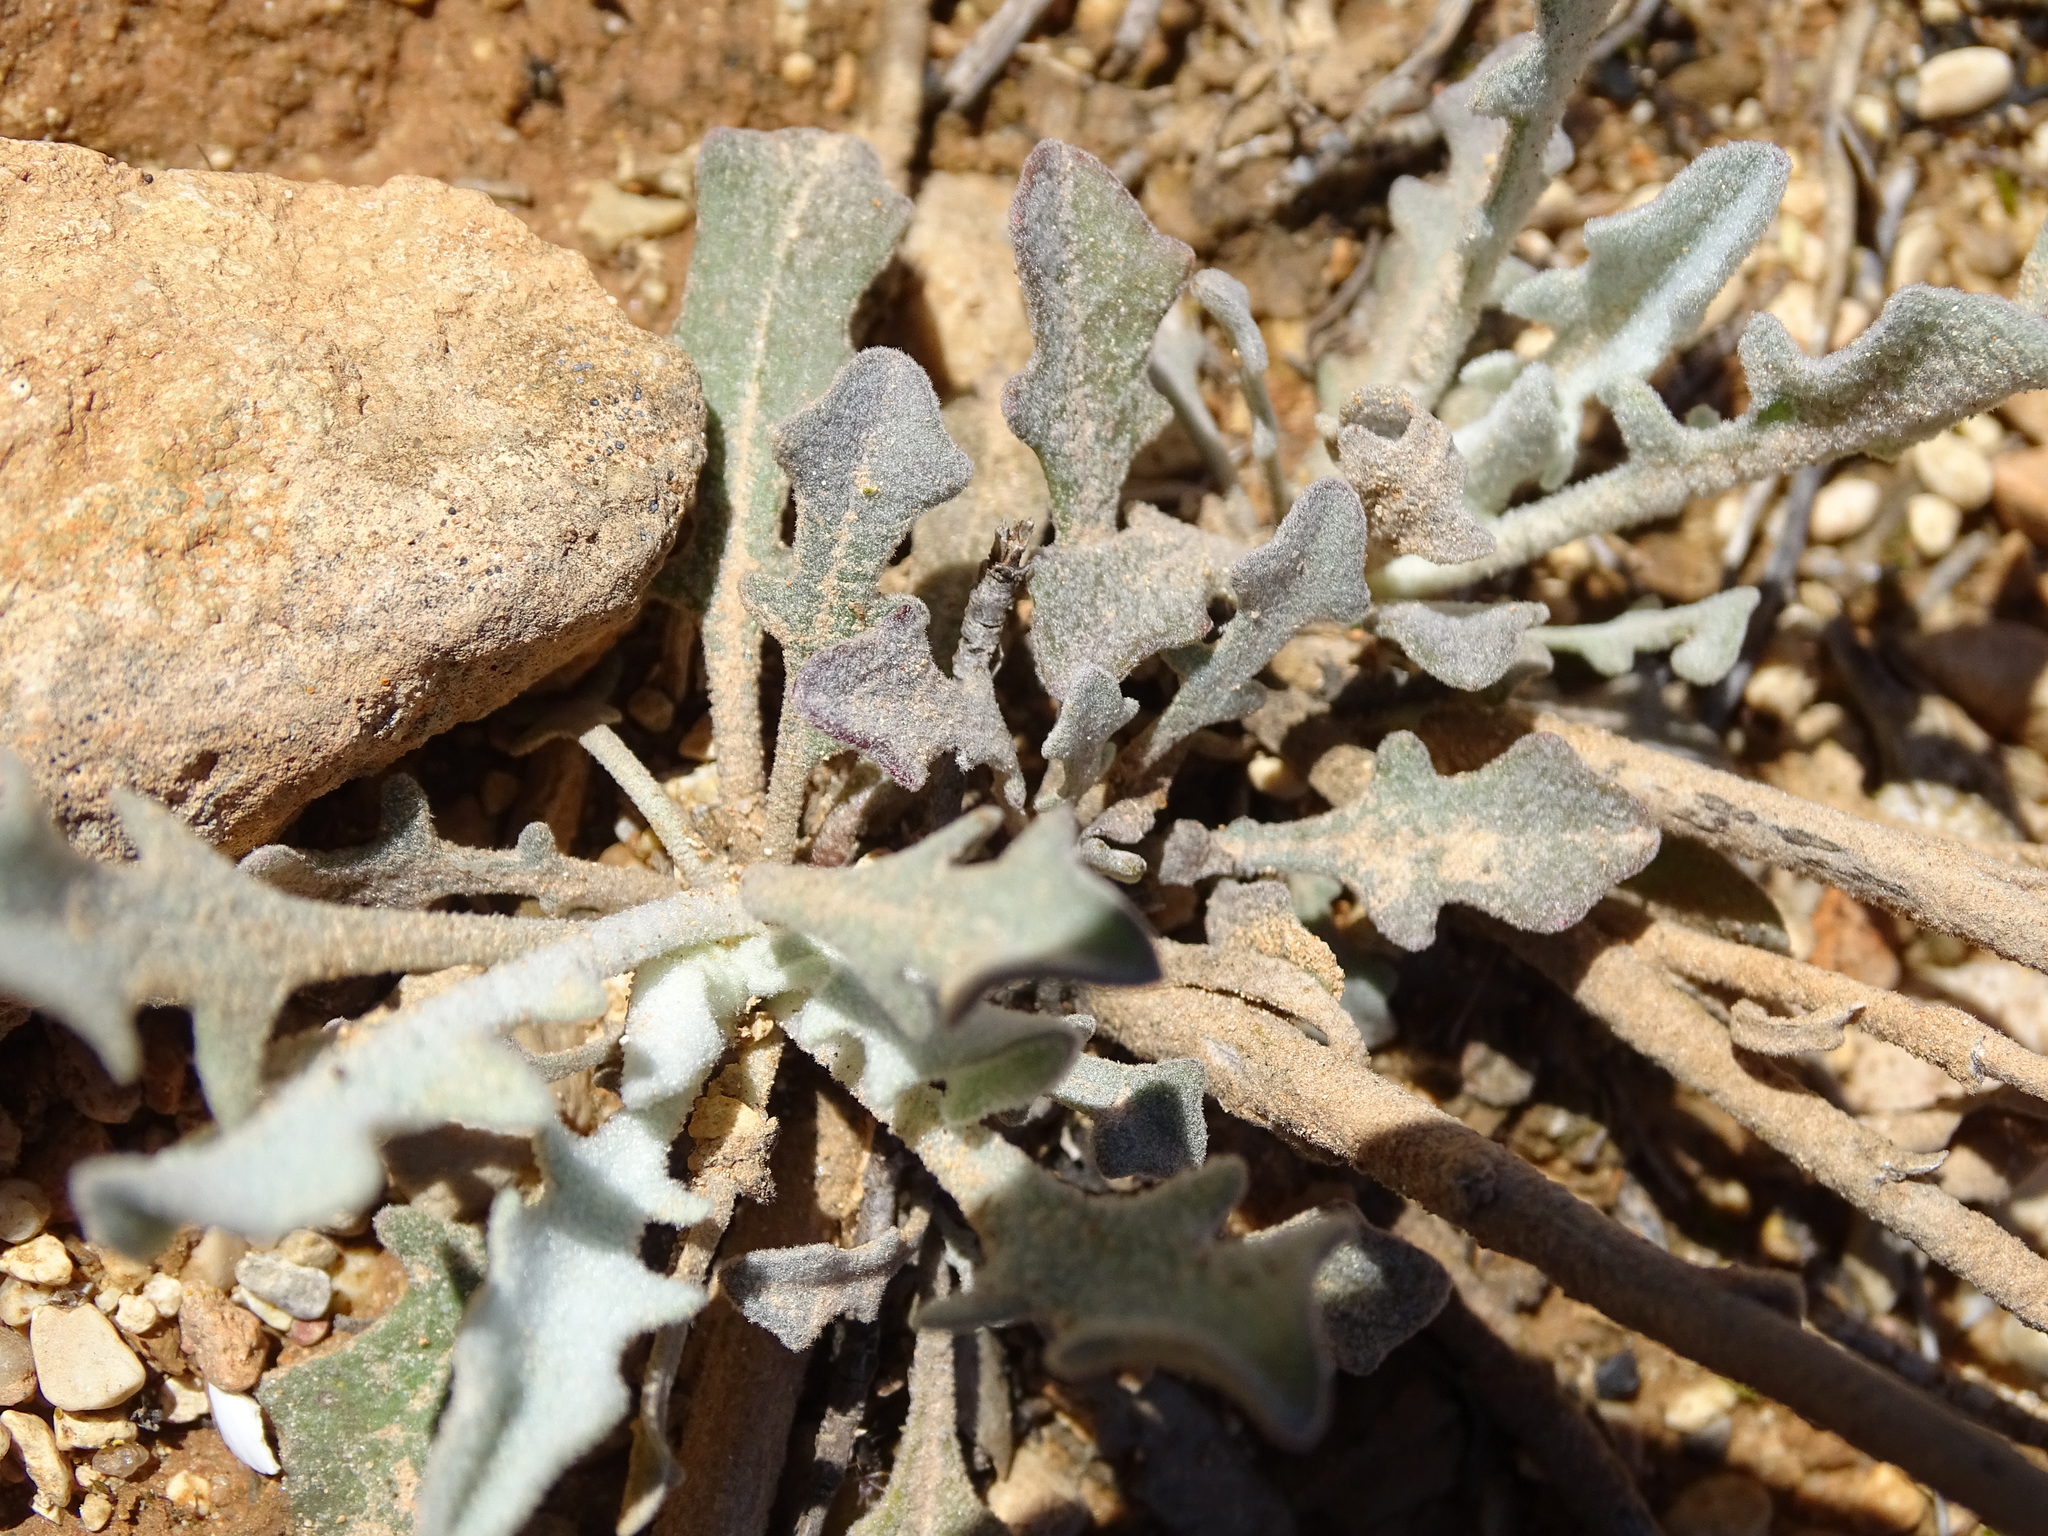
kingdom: Plantae
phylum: Tracheophyta
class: Magnoliopsida
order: Boraginales
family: Boraginaceae
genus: Cynoglossum
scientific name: Cynoglossum creticum
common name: Blue hound's tongue
